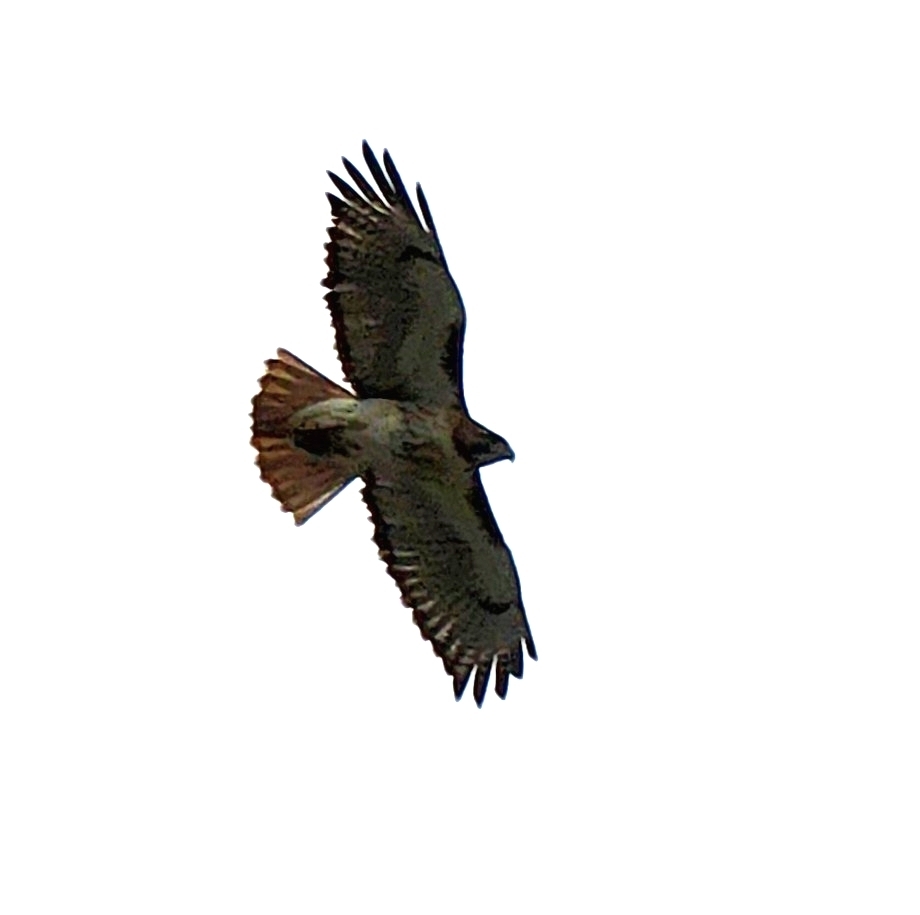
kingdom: Animalia
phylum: Chordata
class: Aves
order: Accipitriformes
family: Accipitridae
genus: Buteo
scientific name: Buteo jamaicensis
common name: Red-tailed hawk
